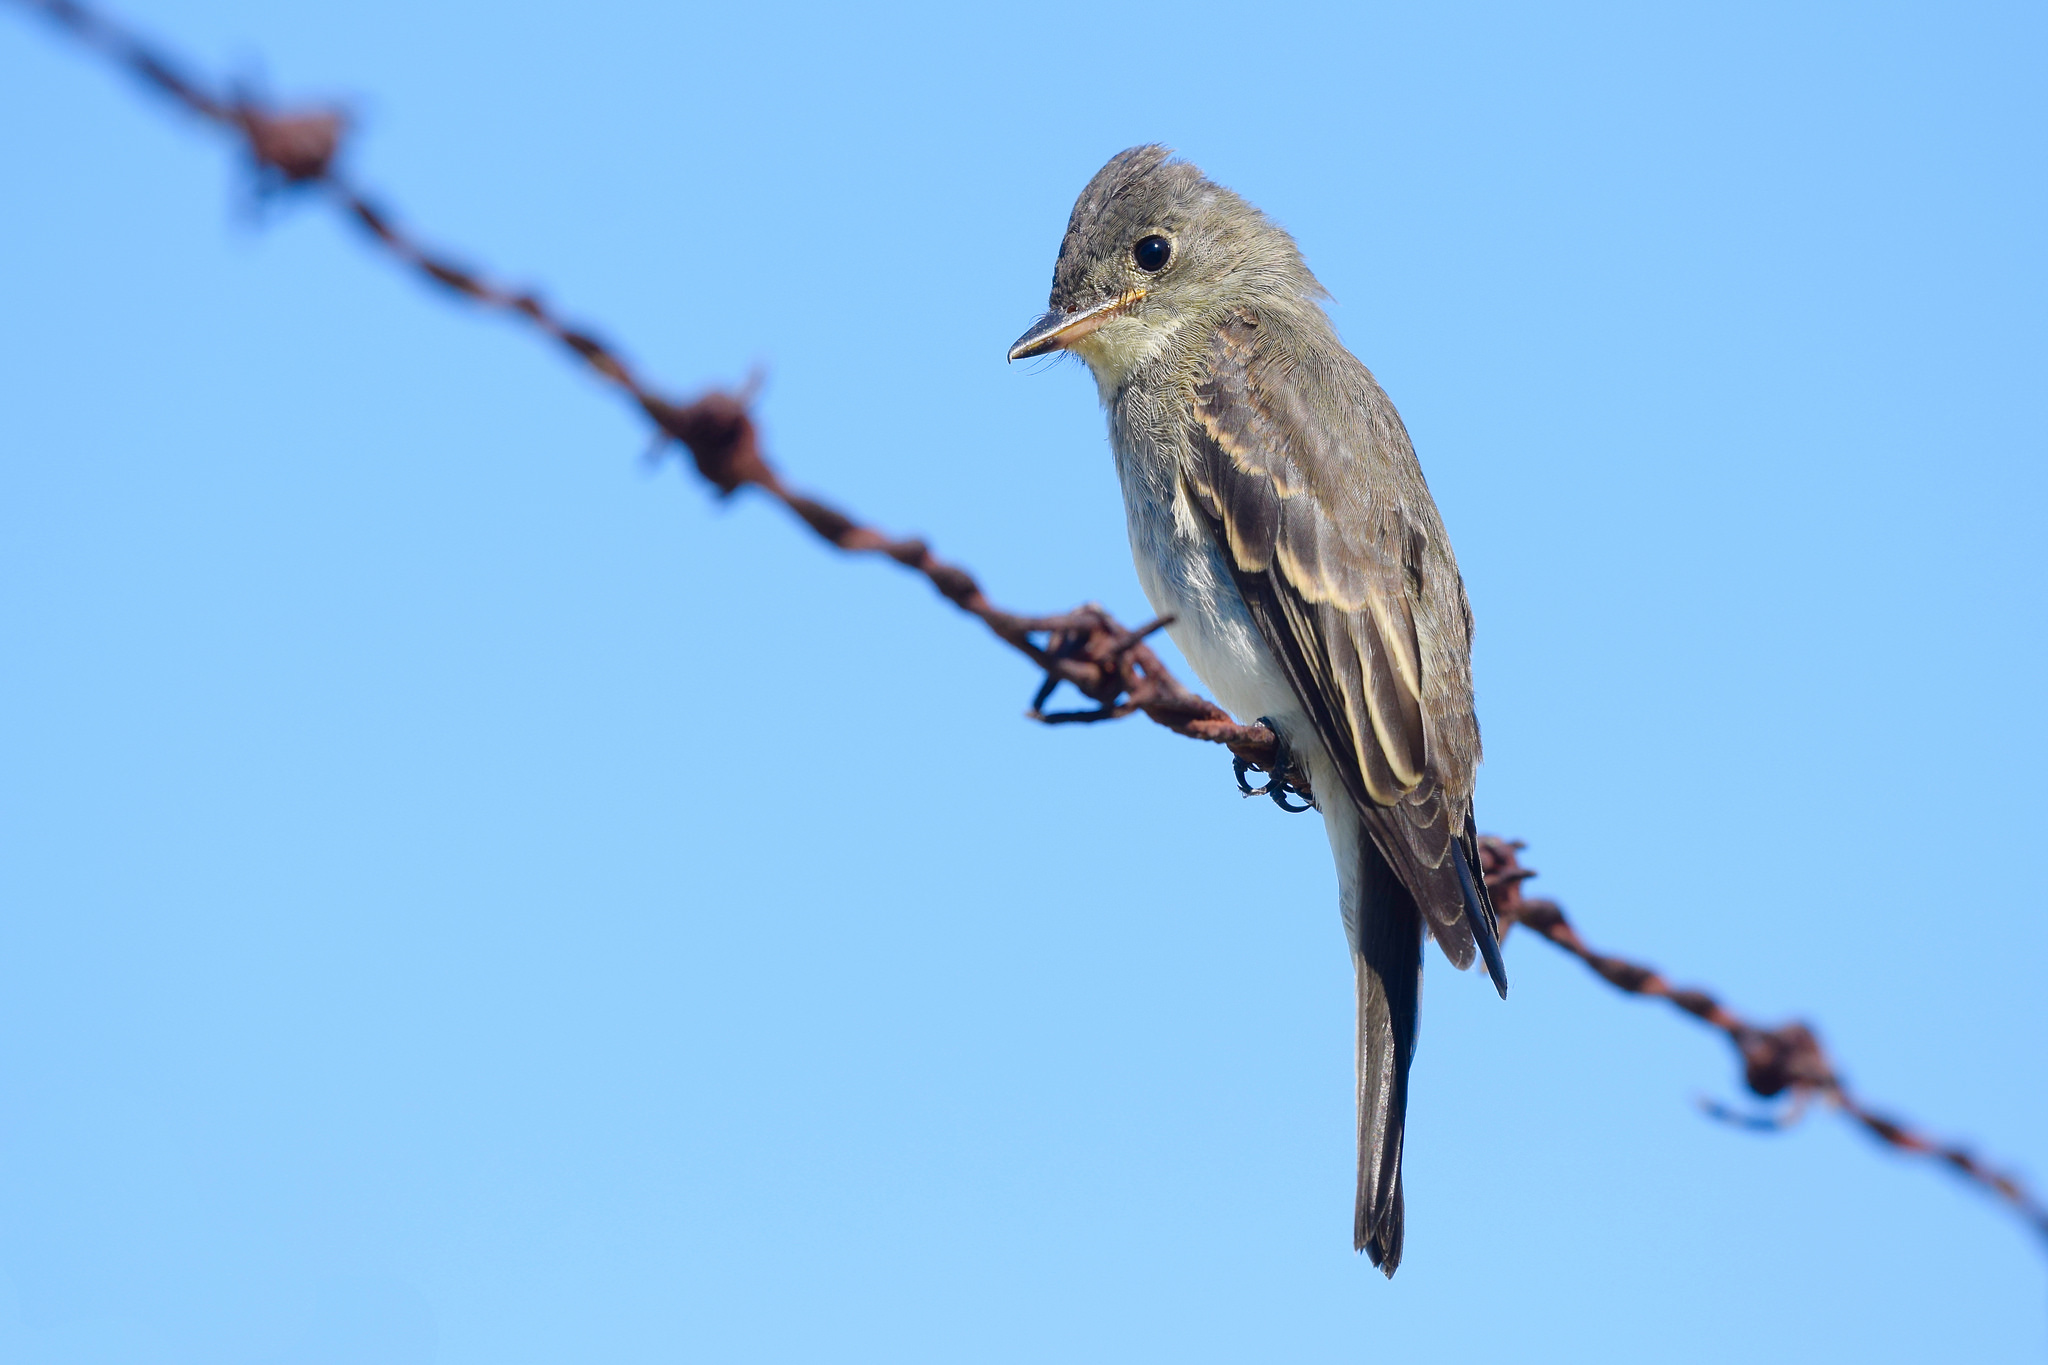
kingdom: Animalia
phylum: Chordata
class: Aves
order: Passeriformes
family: Tyrannidae
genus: Contopus
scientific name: Contopus virens
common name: Eastern wood-pewee
